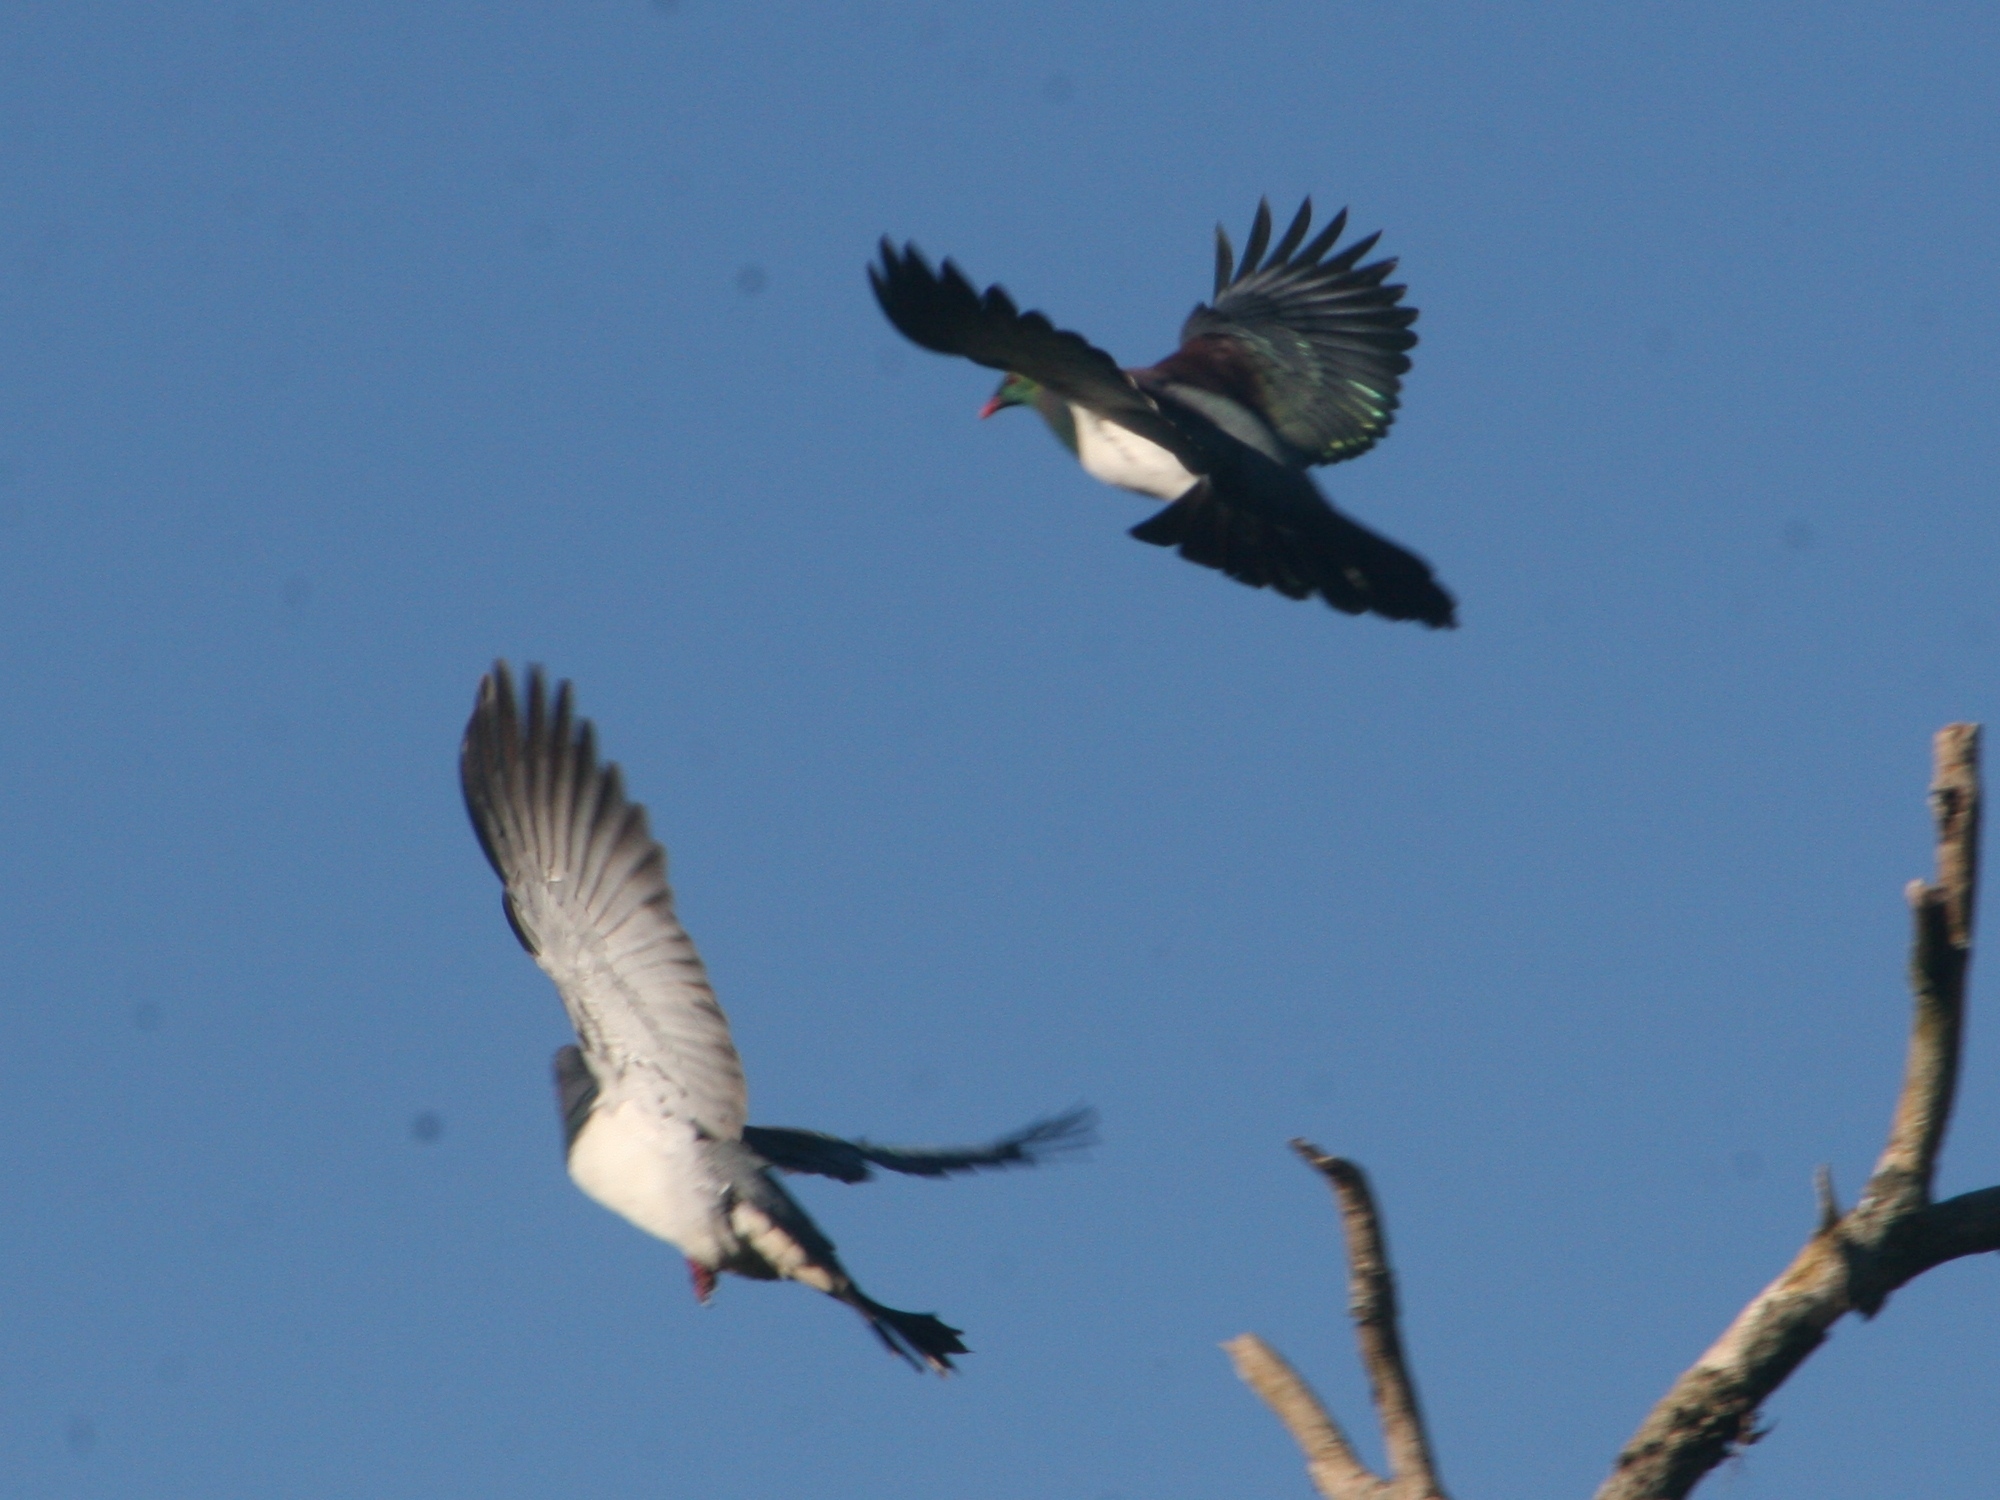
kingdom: Animalia
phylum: Chordata
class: Aves
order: Columbiformes
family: Columbidae
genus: Hemiphaga
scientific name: Hemiphaga novaeseelandiae
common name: New zealand pigeon
